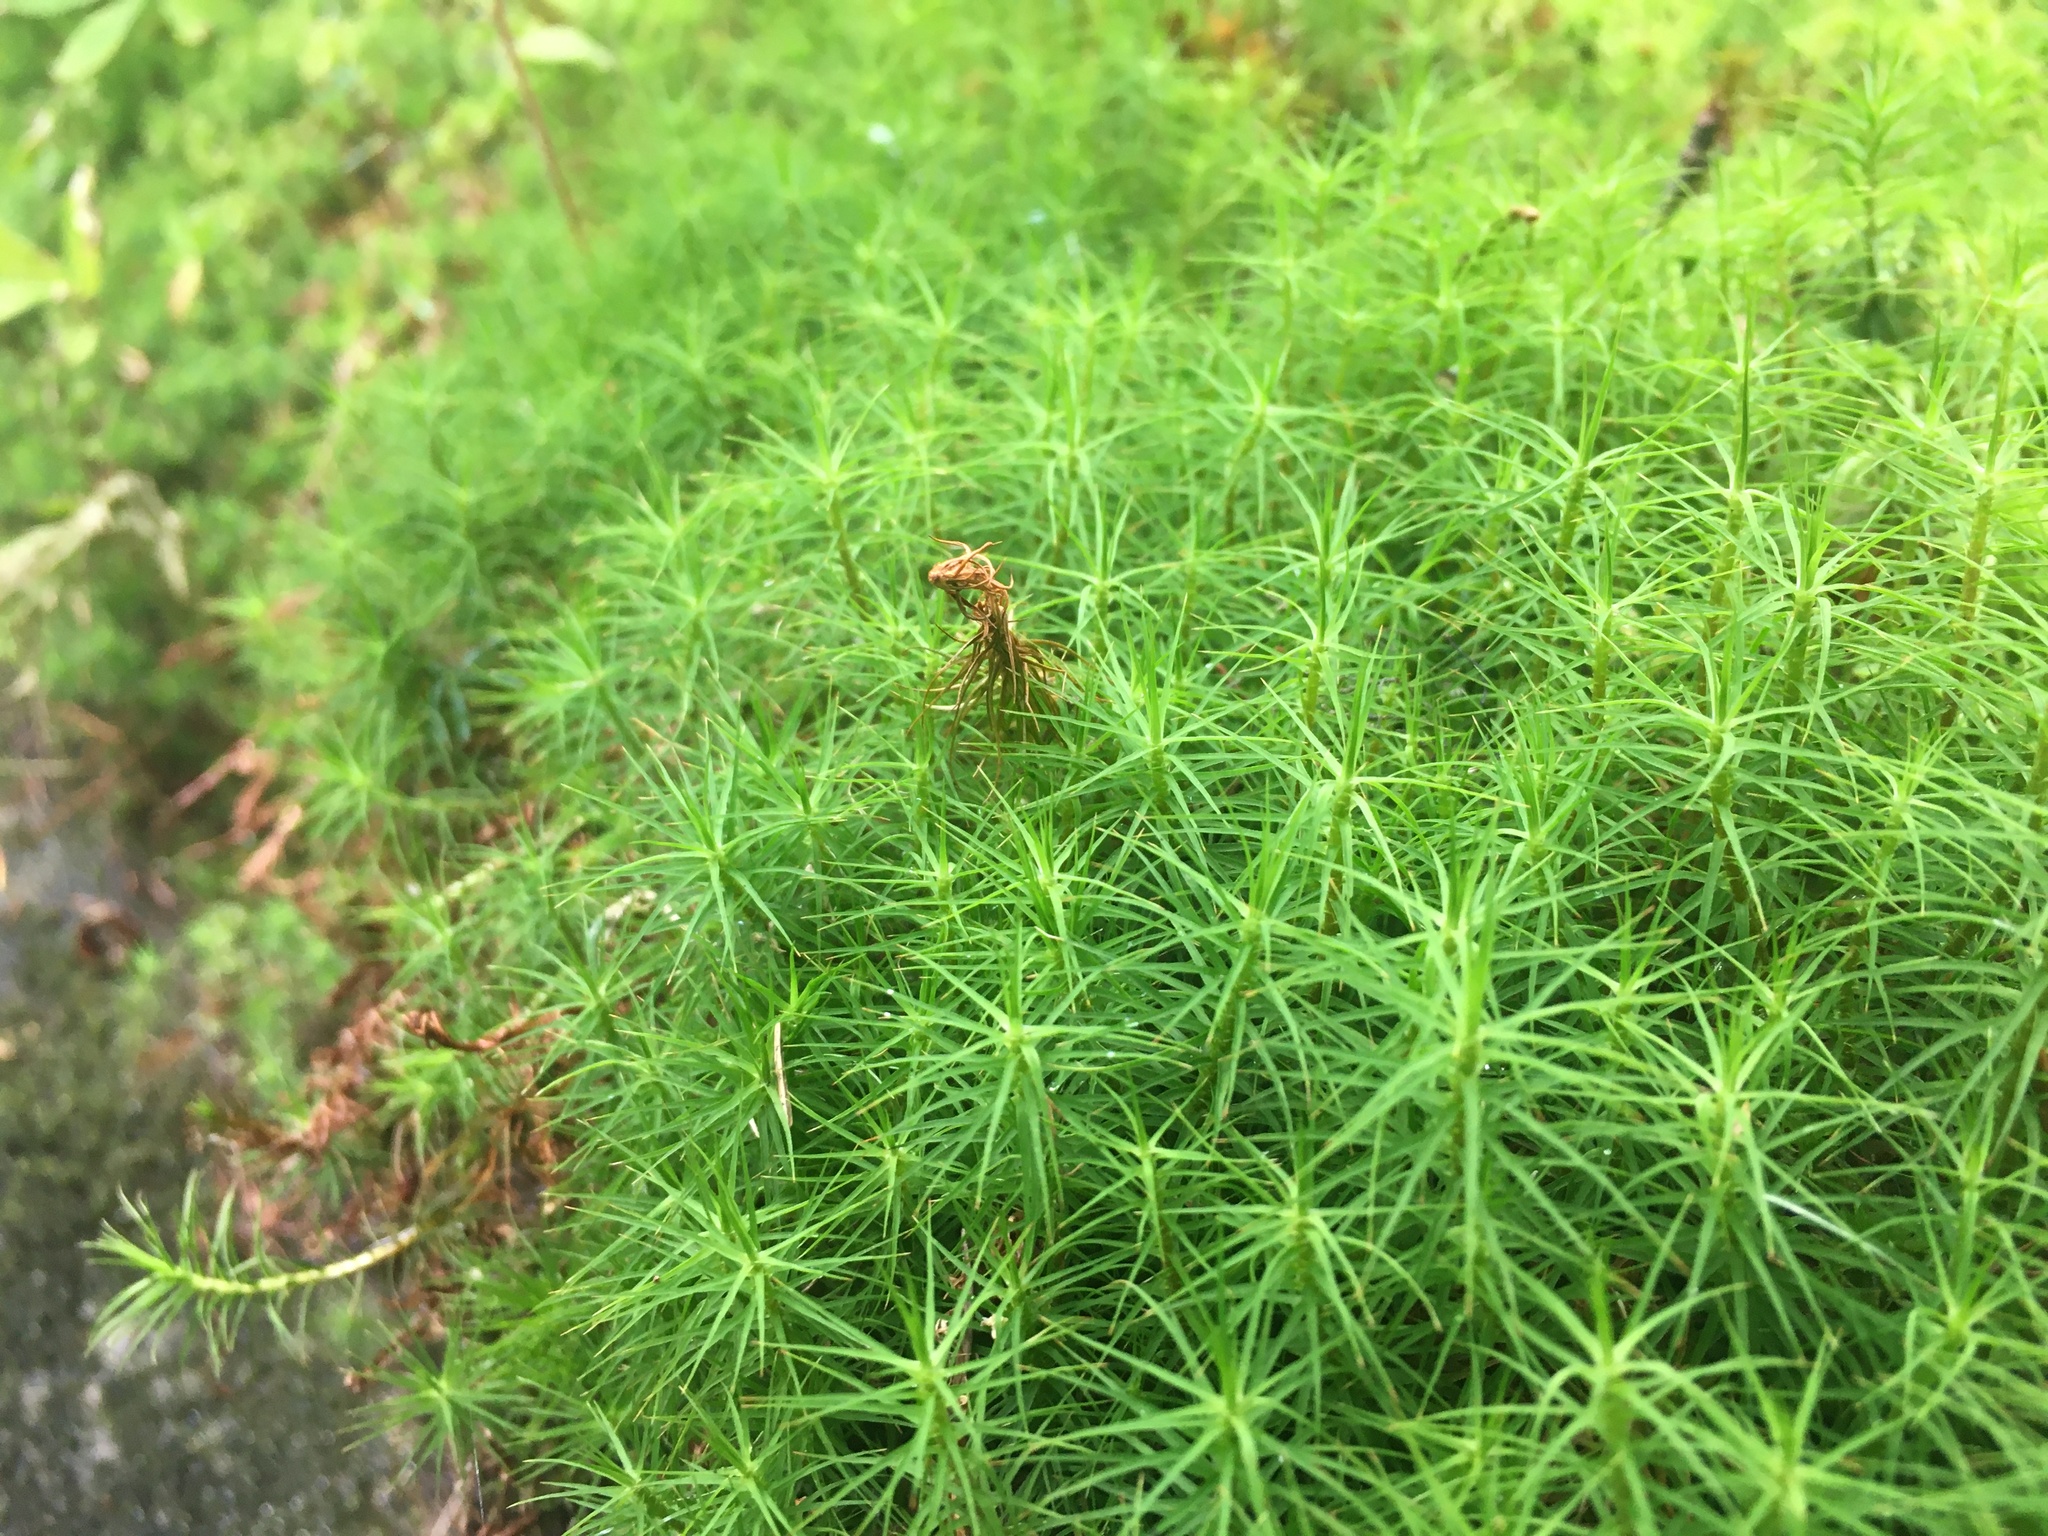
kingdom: Plantae
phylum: Bryophyta
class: Polytrichopsida
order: Polytrichales
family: Polytrichaceae
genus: Polytrichum
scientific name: Polytrichum commune
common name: Common haircap
